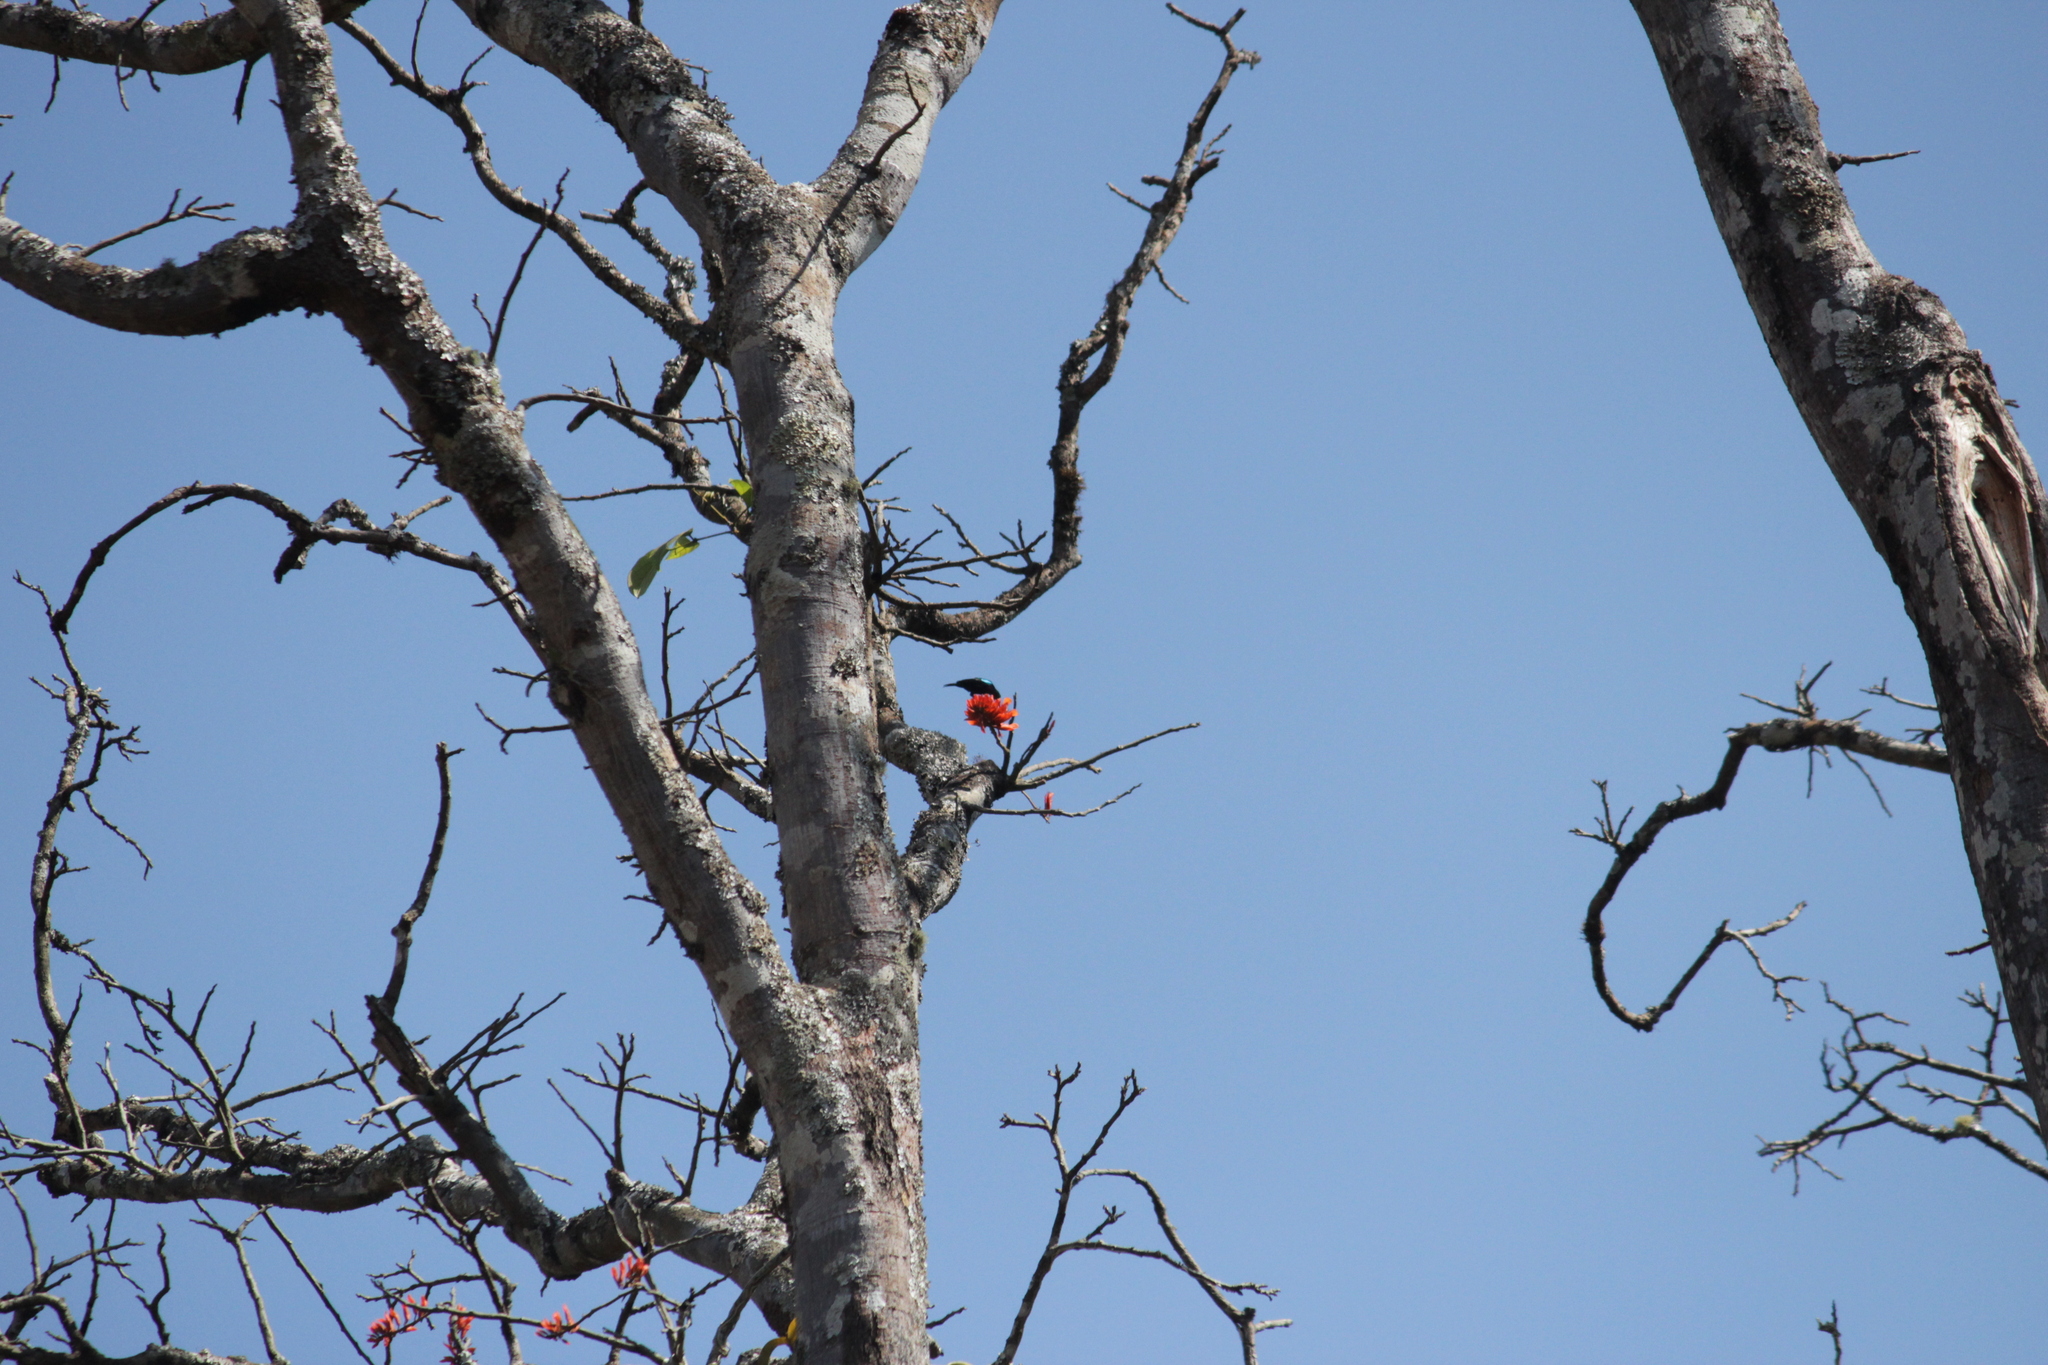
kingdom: Animalia
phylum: Chordata
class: Aves
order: Passeriformes
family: Nectariniidae
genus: Cinnyris
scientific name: Cinnyris bifasciatus
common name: Purple-banded sunbird
